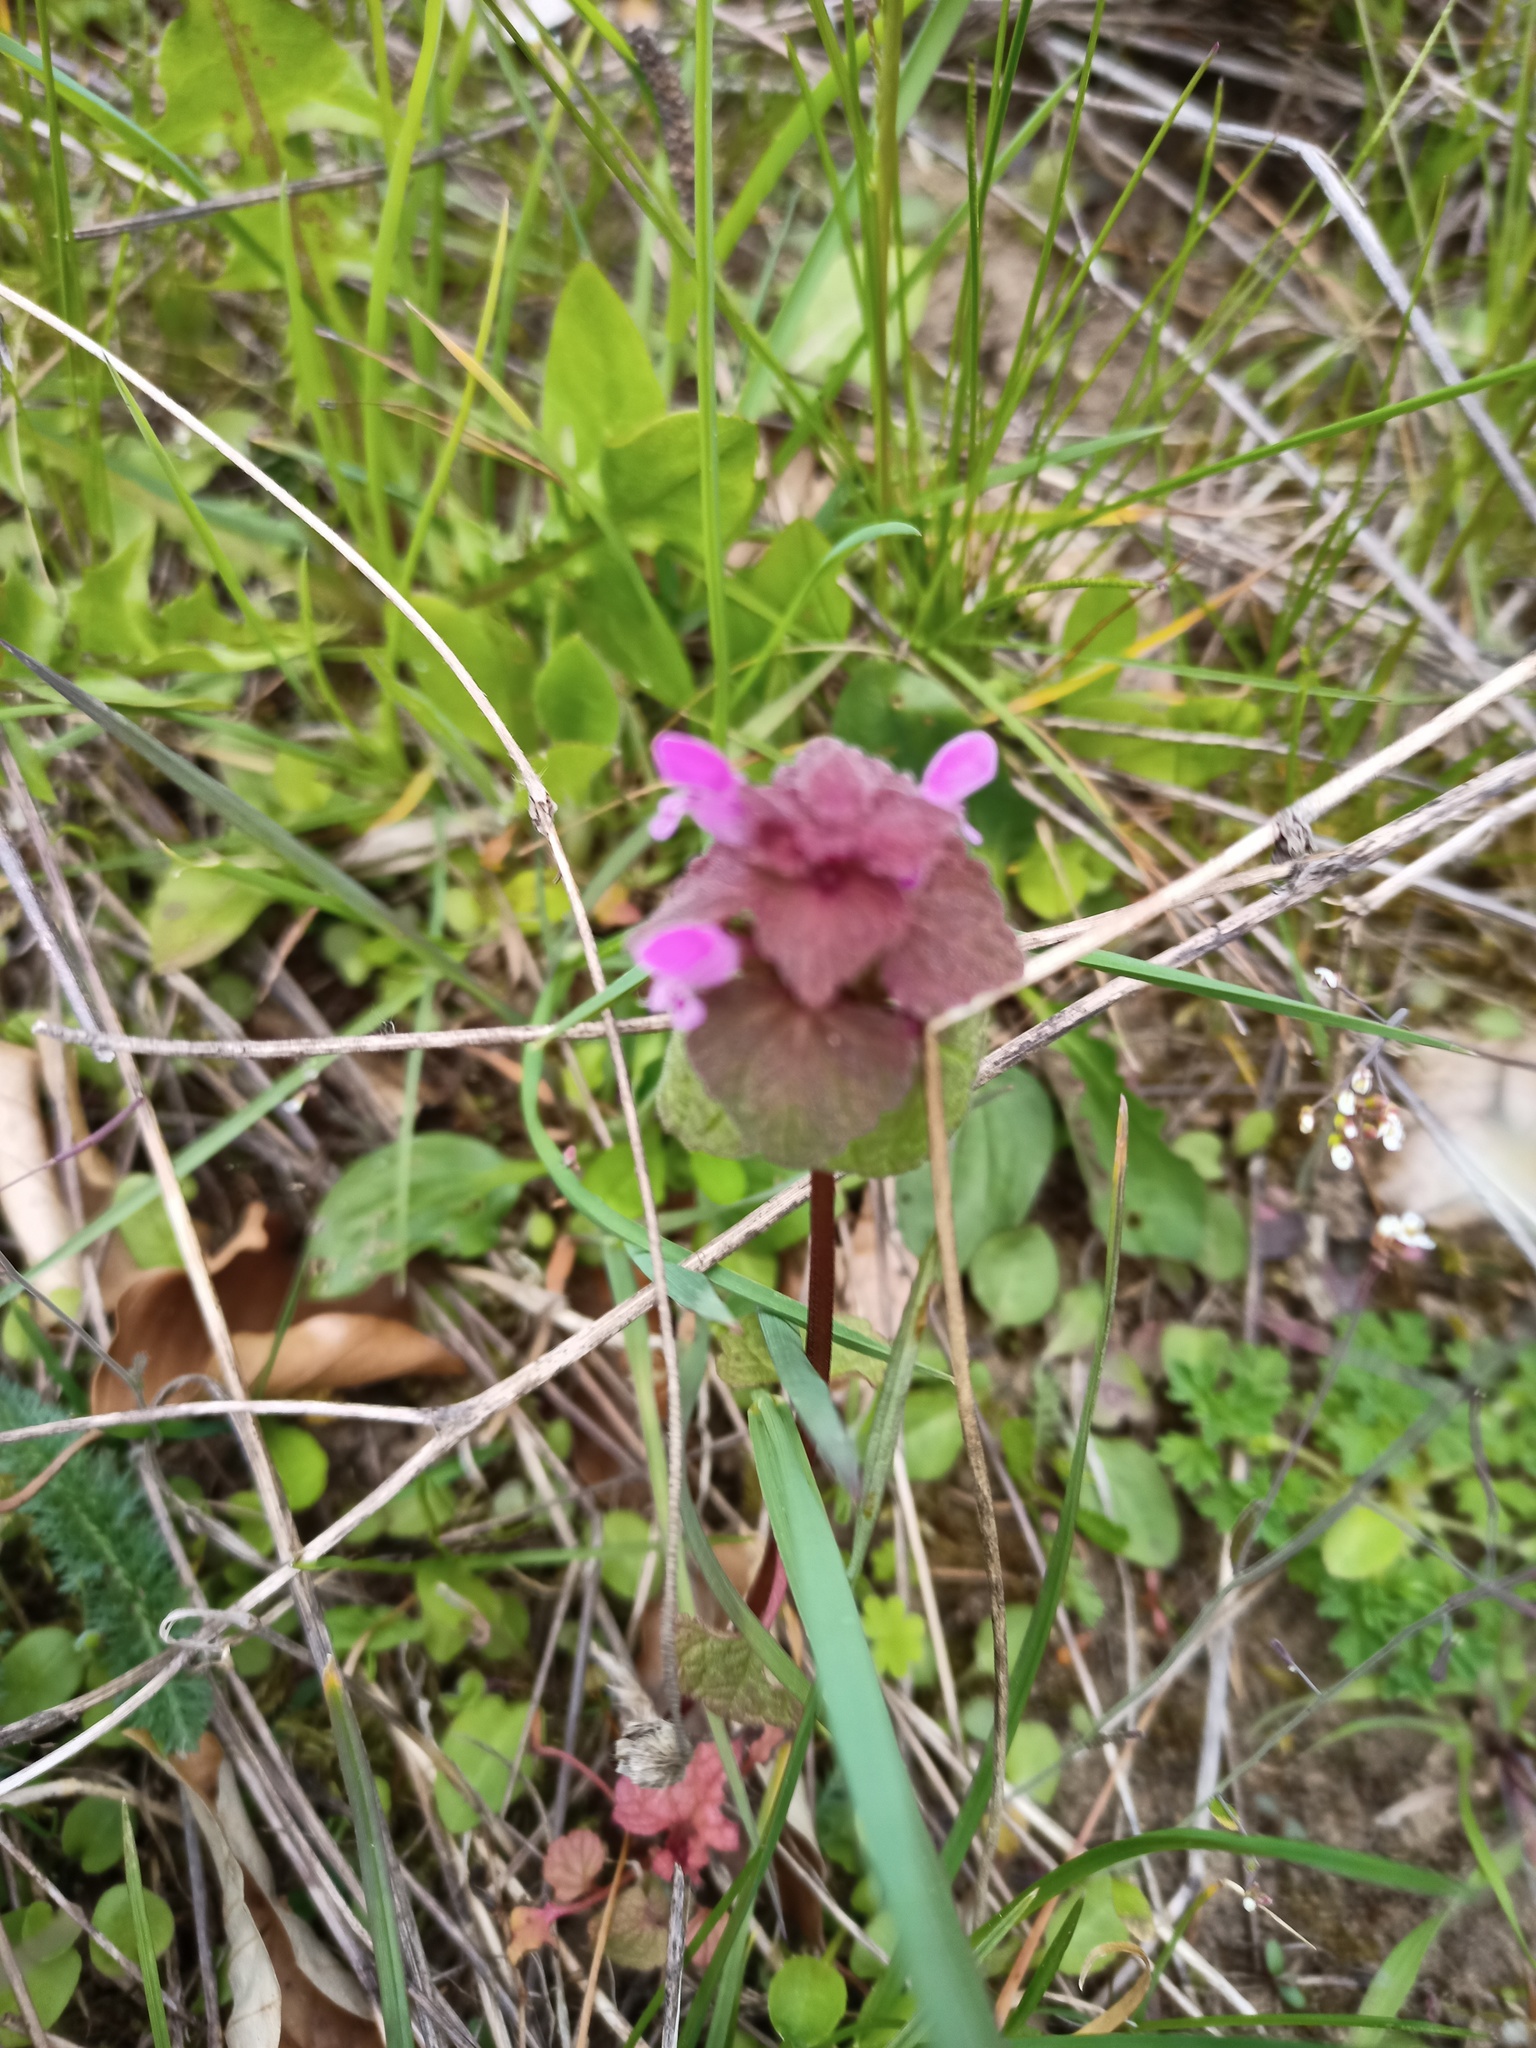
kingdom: Plantae
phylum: Tracheophyta
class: Magnoliopsida
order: Lamiales
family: Lamiaceae
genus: Lamium
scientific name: Lamium purpureum
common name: Red dead-nettle
